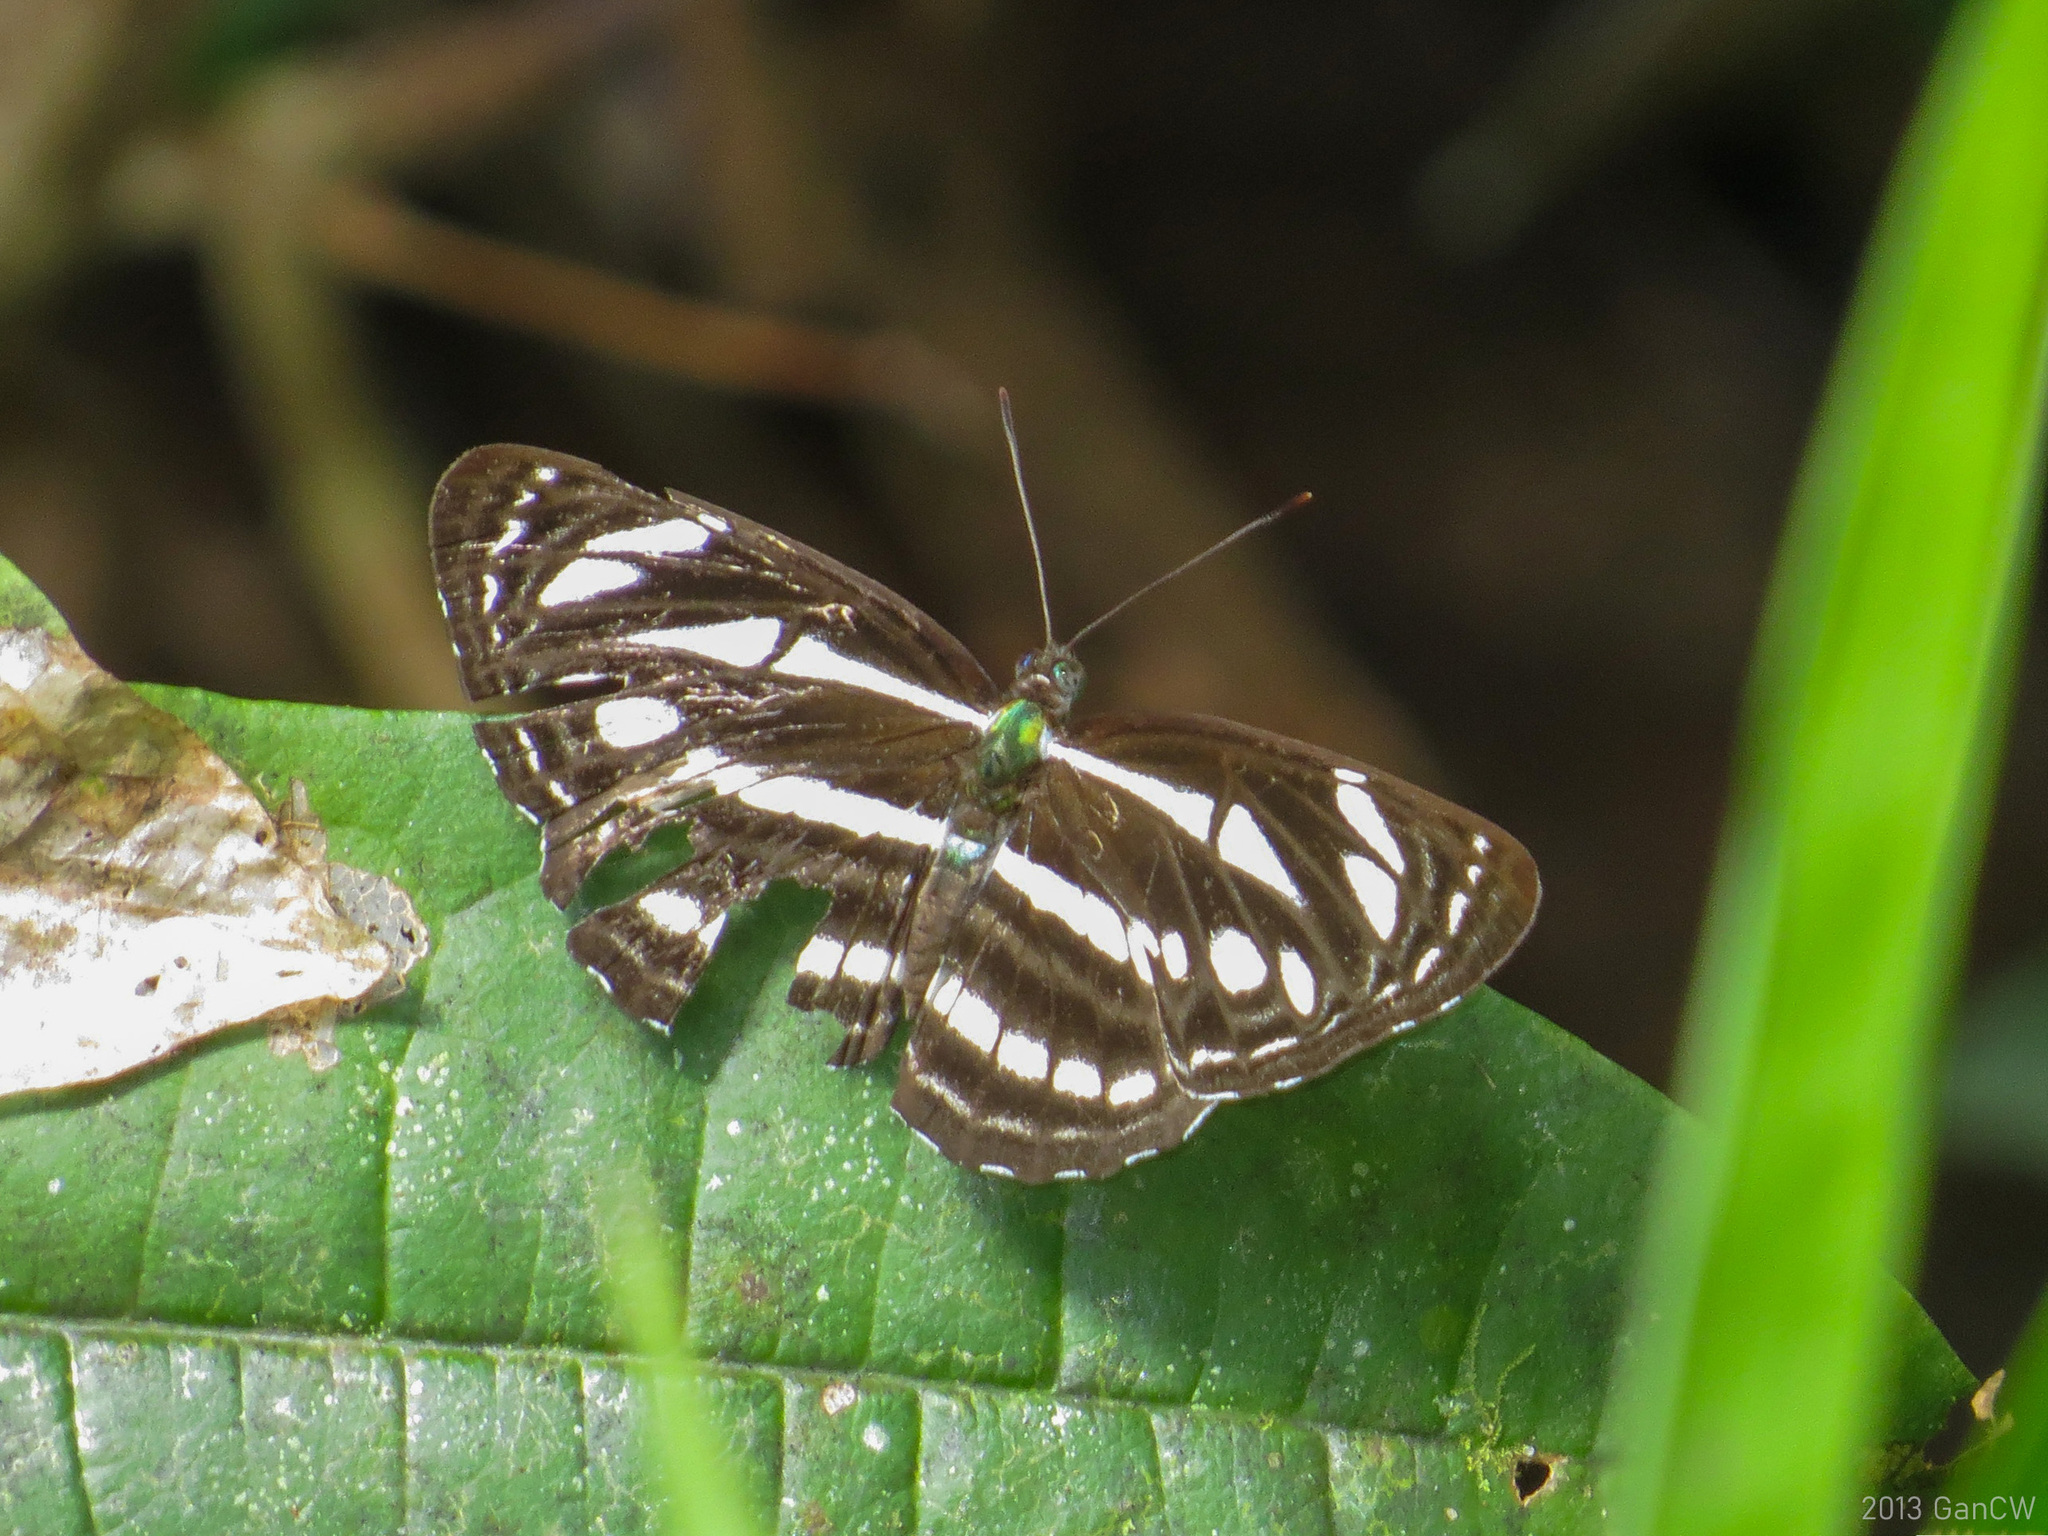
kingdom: Animalia
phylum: Arthropoda
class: Insecta
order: Lepidoptera
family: Nymphalidae
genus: Neptis
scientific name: Neptis leucoporos
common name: Grey sailer
